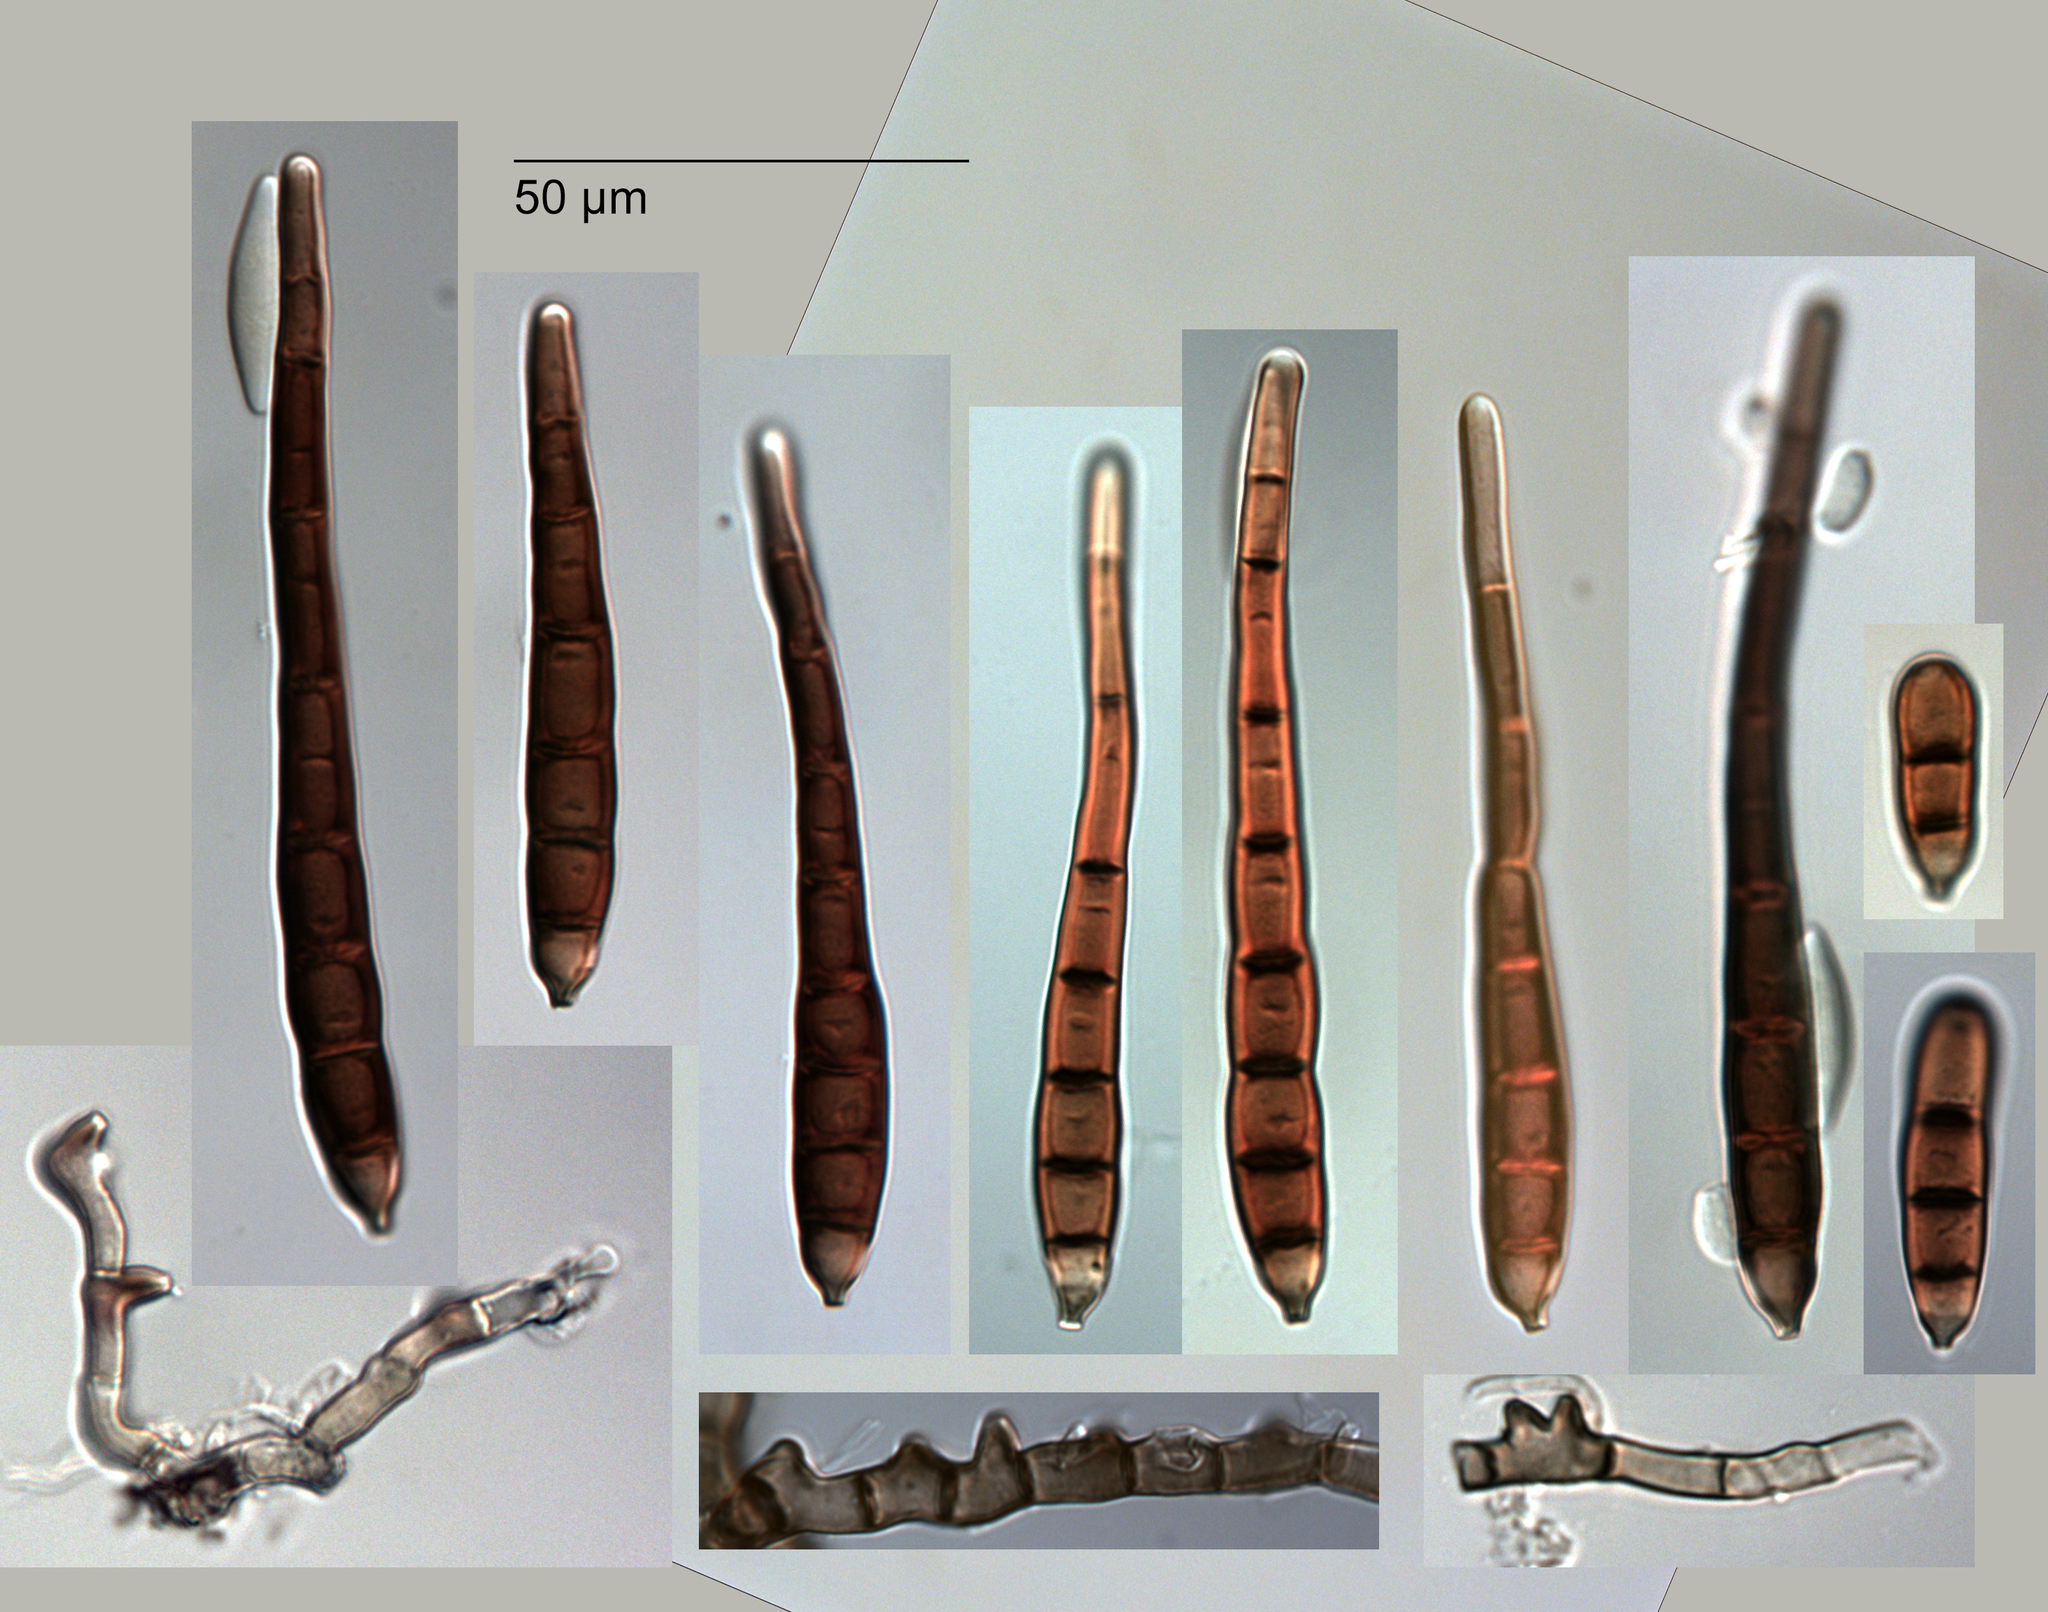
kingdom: Fungi
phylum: Ascomycota
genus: Janetia
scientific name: Janetia interna
